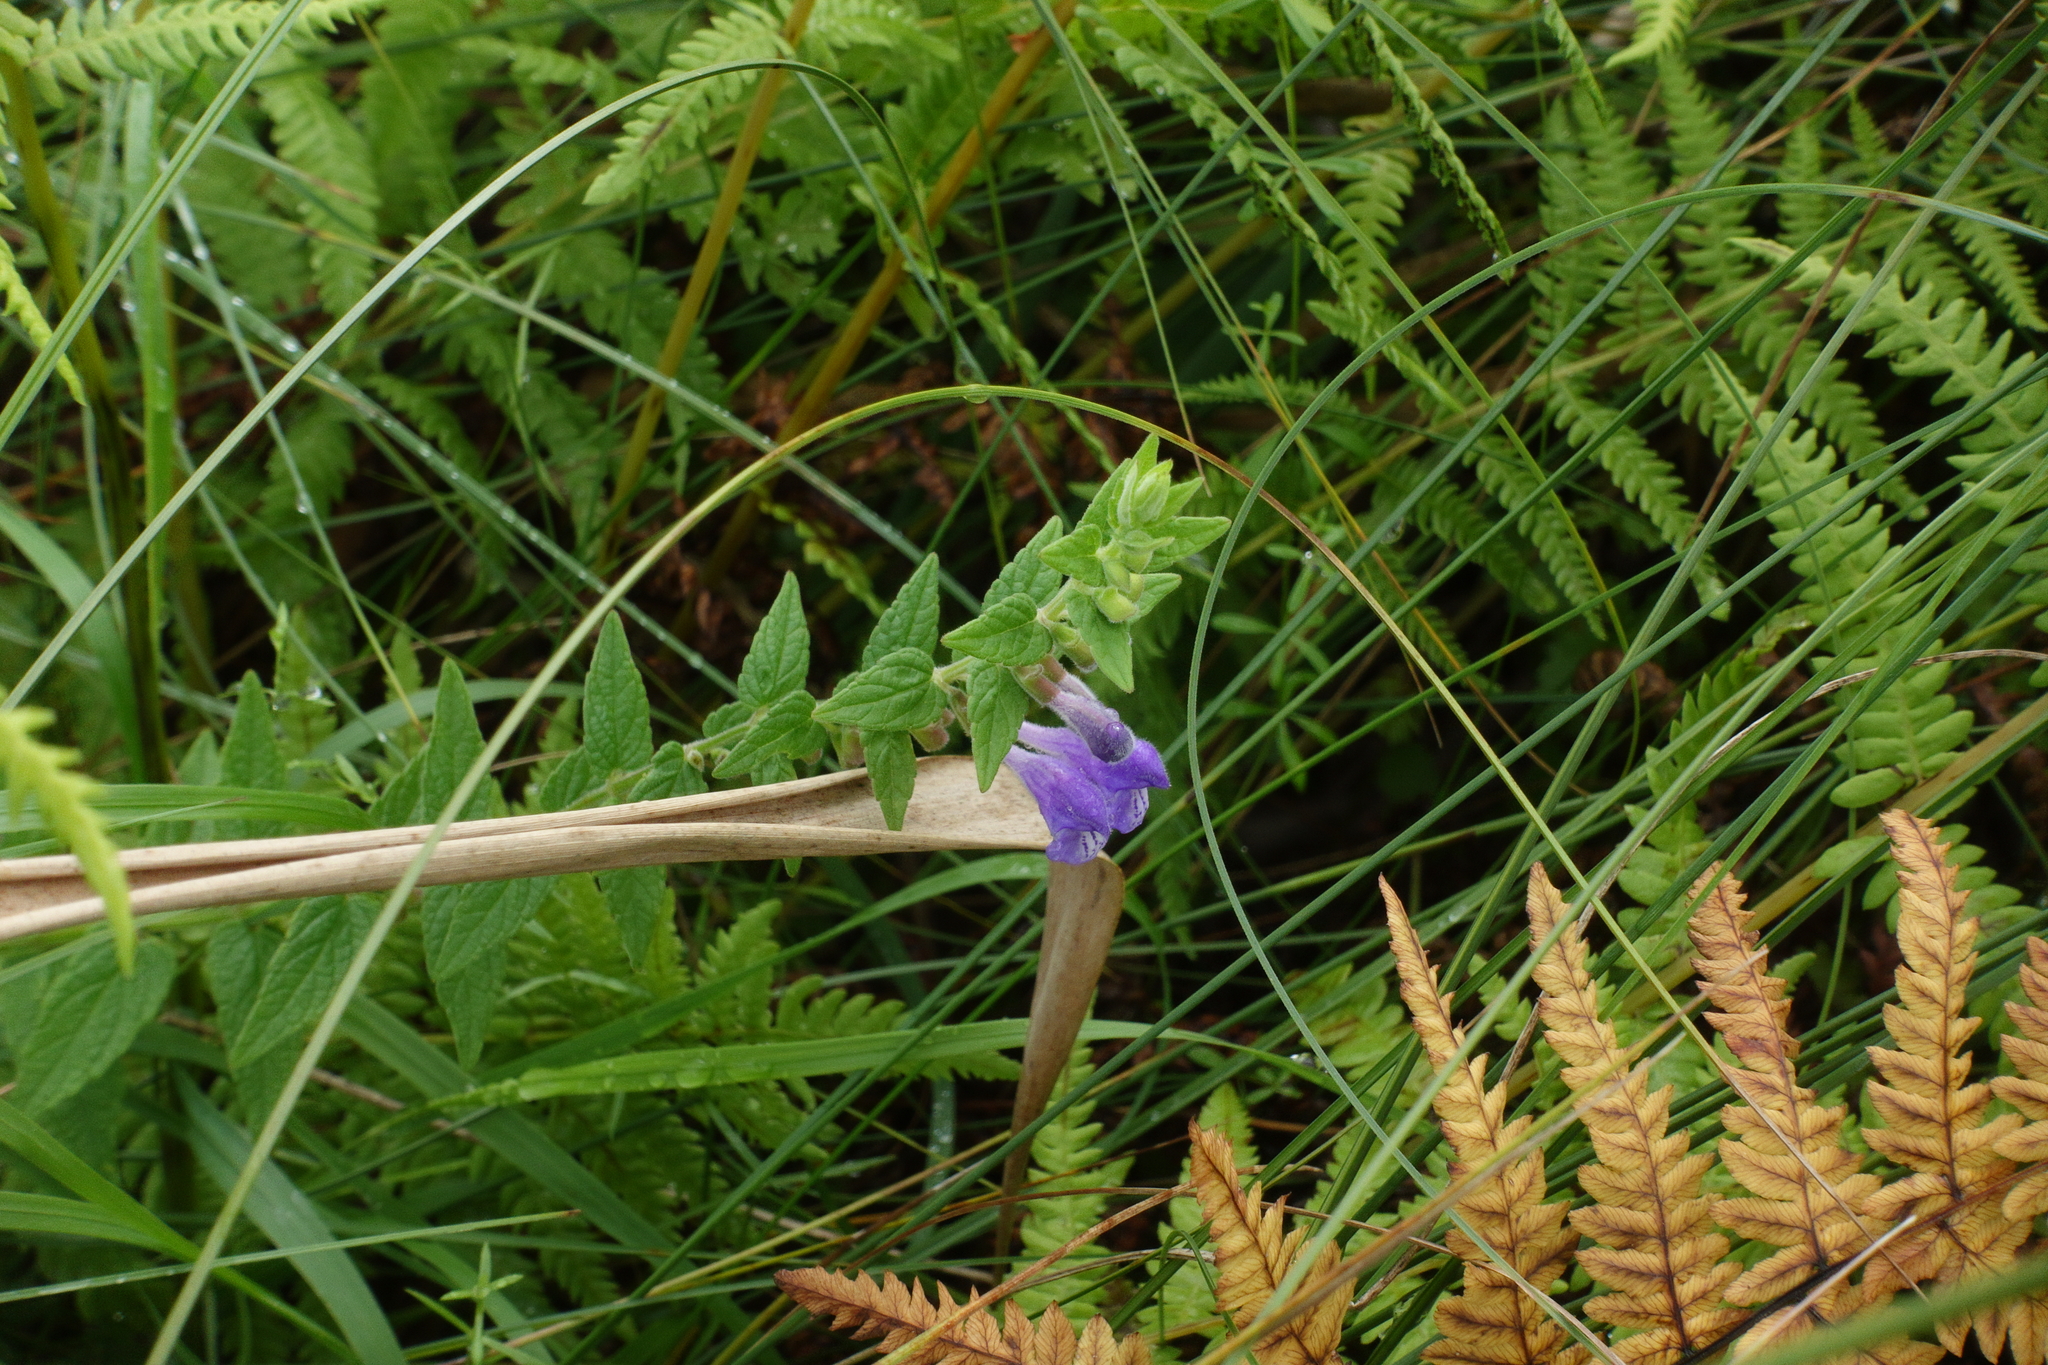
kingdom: Plantae
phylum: Tracheophyta
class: Magnoliopsida
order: Lamiales
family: Lamiaceae
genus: Scutellaria
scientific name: Scutellaria galericulata
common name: Skullcap
